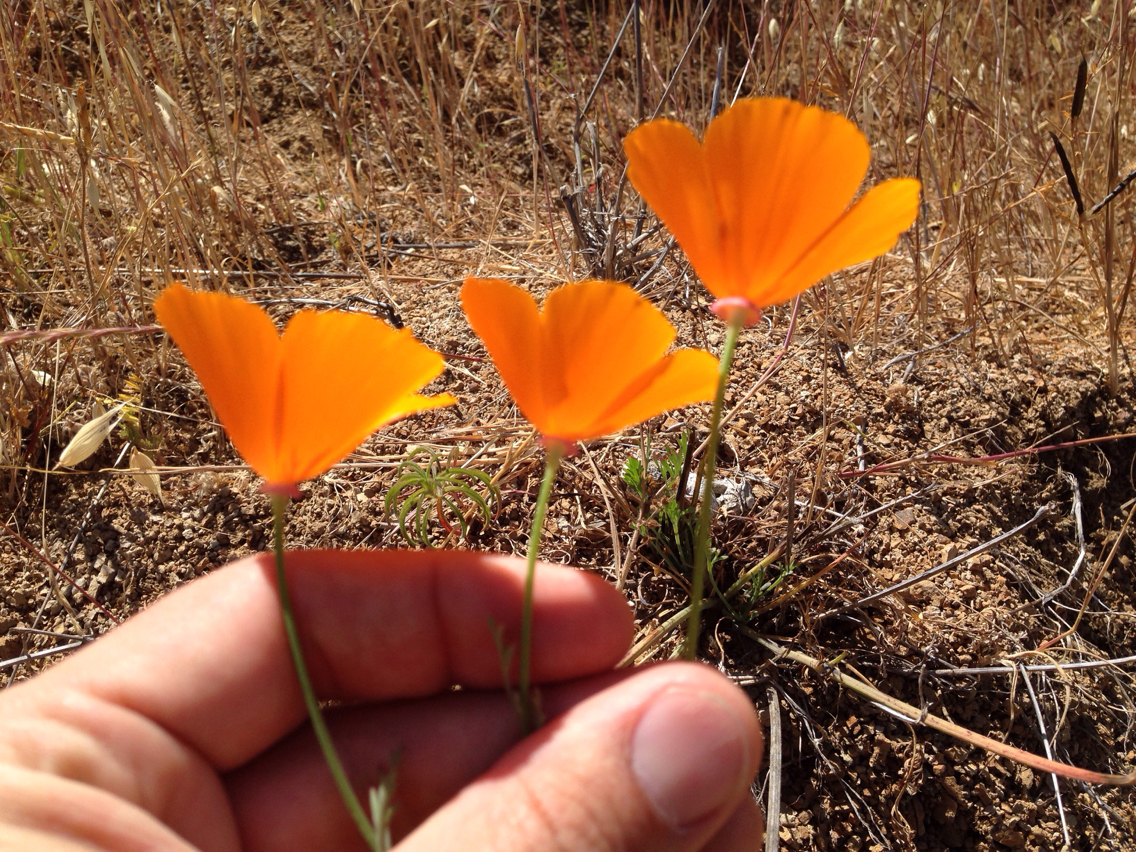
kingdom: Plantae
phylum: Tracheophyta
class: Magnoliopsida
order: Ranunculales
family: Papaveraceae
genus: Eschscholzia
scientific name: Eschscholzia californica
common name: California poppy
